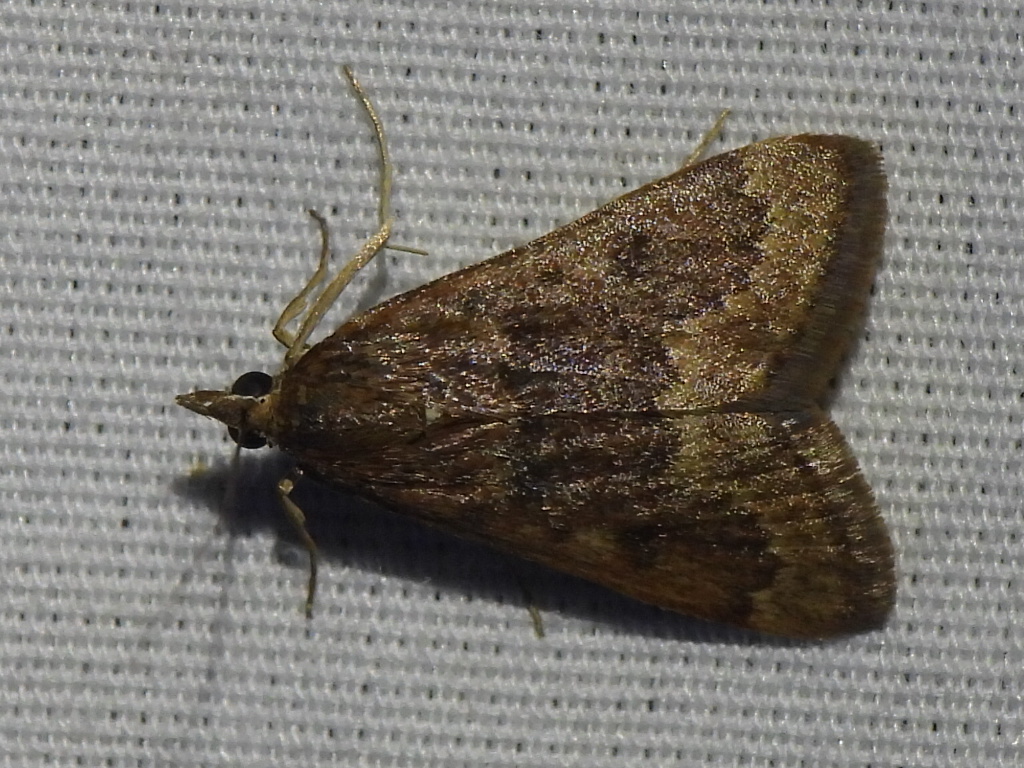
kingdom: Animalia
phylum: Arthropoda
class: Insecta
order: Lepidoptera
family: Crambidae
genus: Achyra
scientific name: Achyra rantalis
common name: Garden webworm
